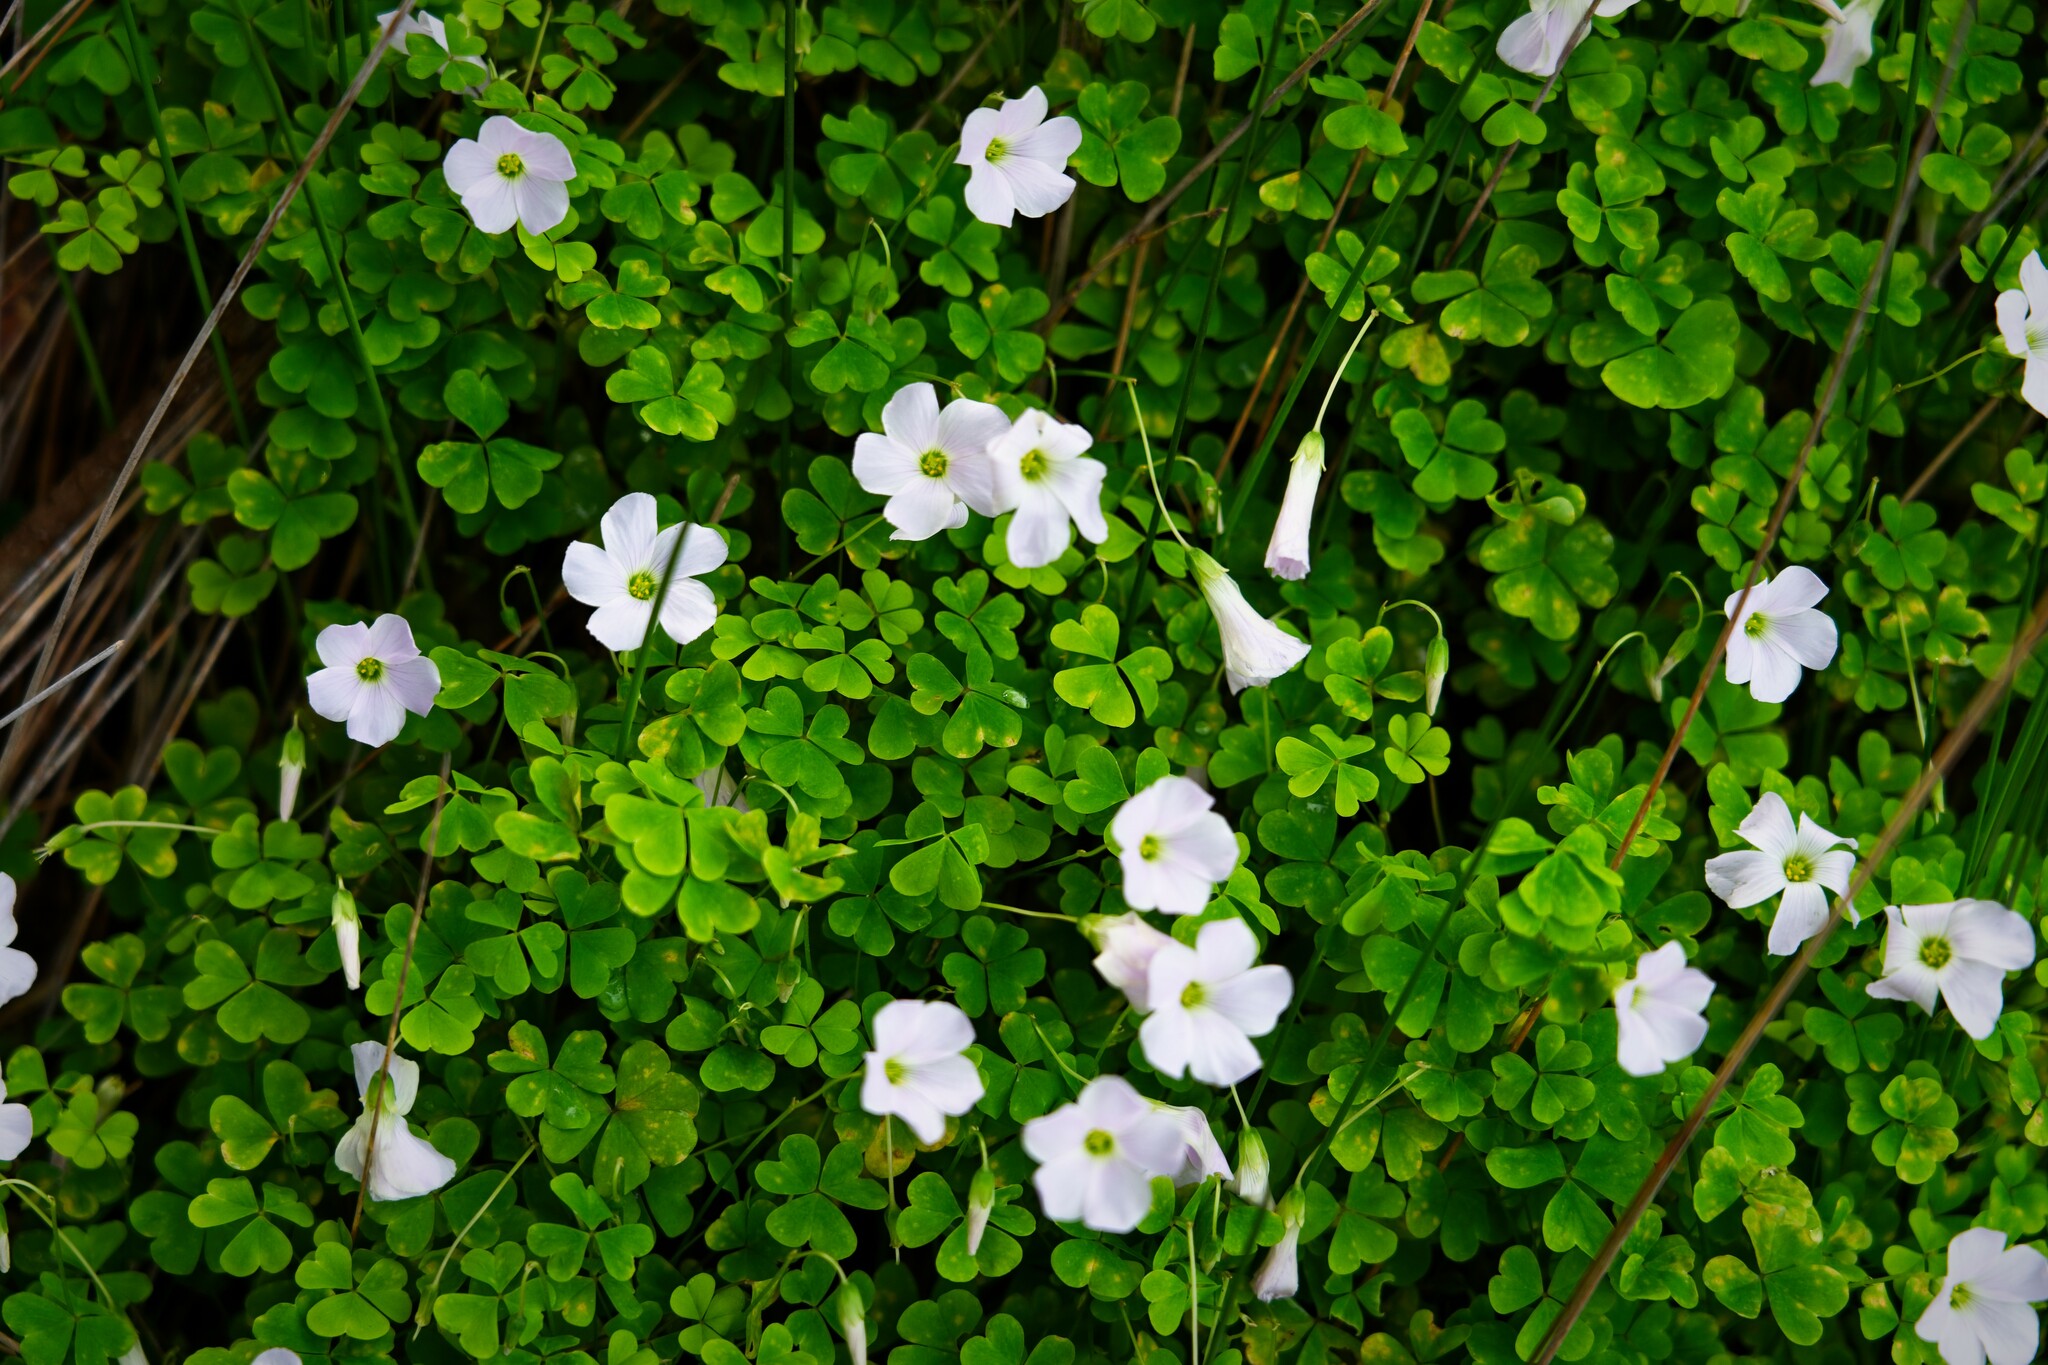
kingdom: Plantae
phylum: Tracheophyta
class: Magnoliopsida
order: Oxalidales
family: Oxalidaceae
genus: Oxalis
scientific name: Oxalis incarnata
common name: Pale pink-sorrel
